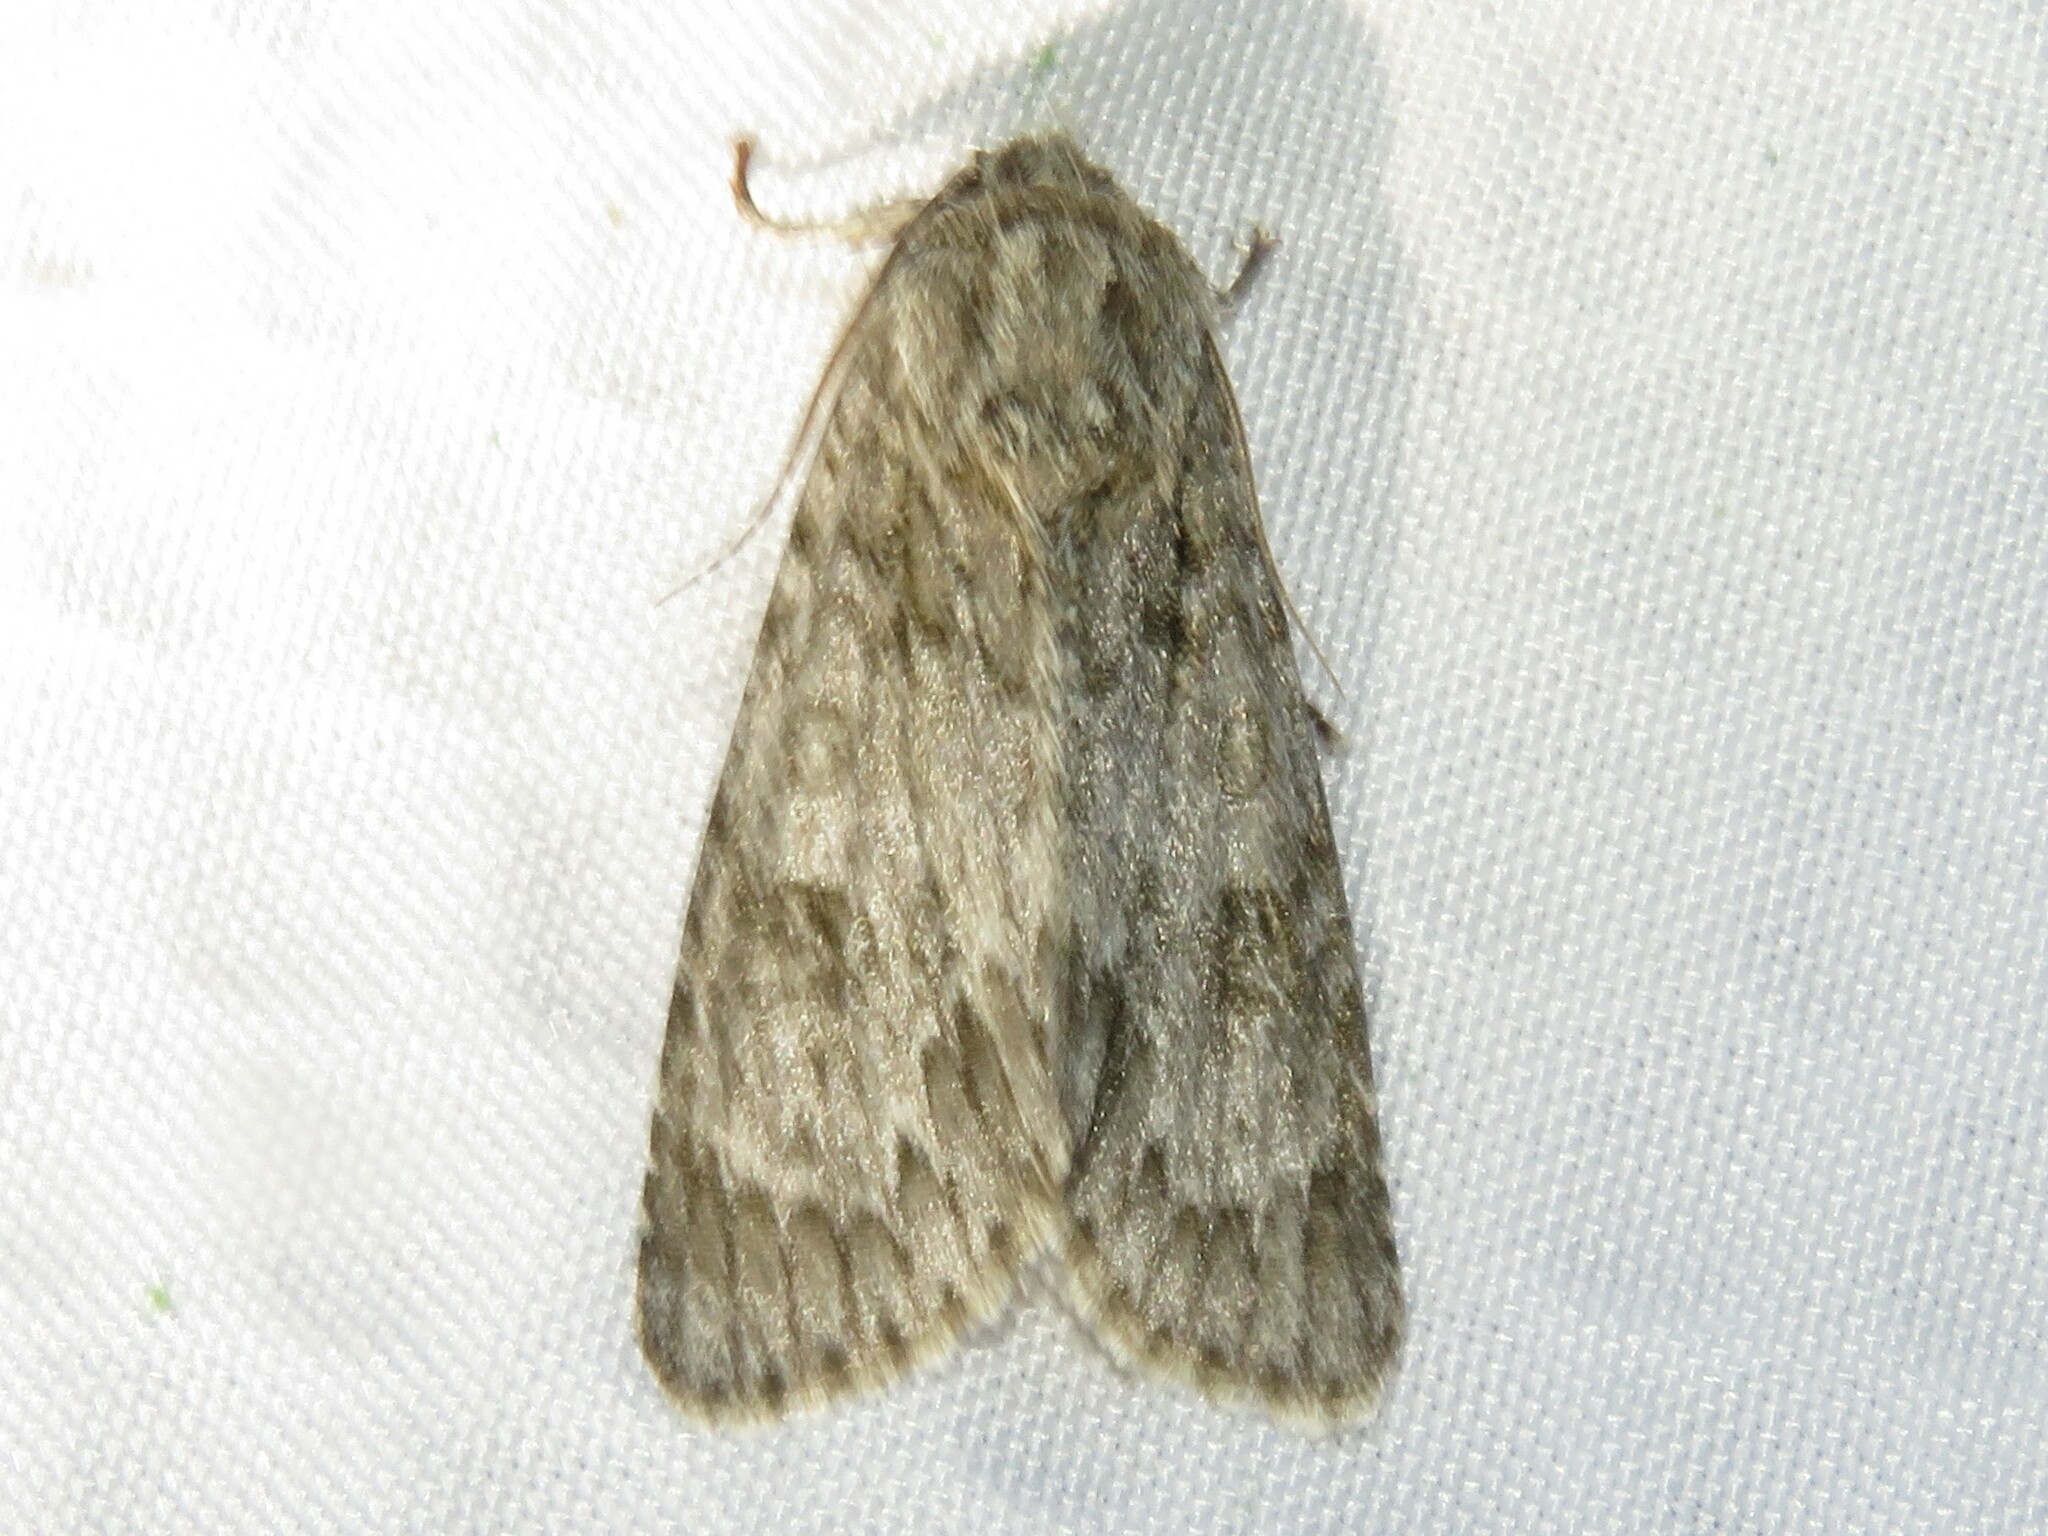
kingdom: Animalia
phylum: Arthropoda
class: Insecta
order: Lepidoptera
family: Noctuidae
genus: Acronicta
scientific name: Acronicta rubricoma
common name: Hackberry dagger
